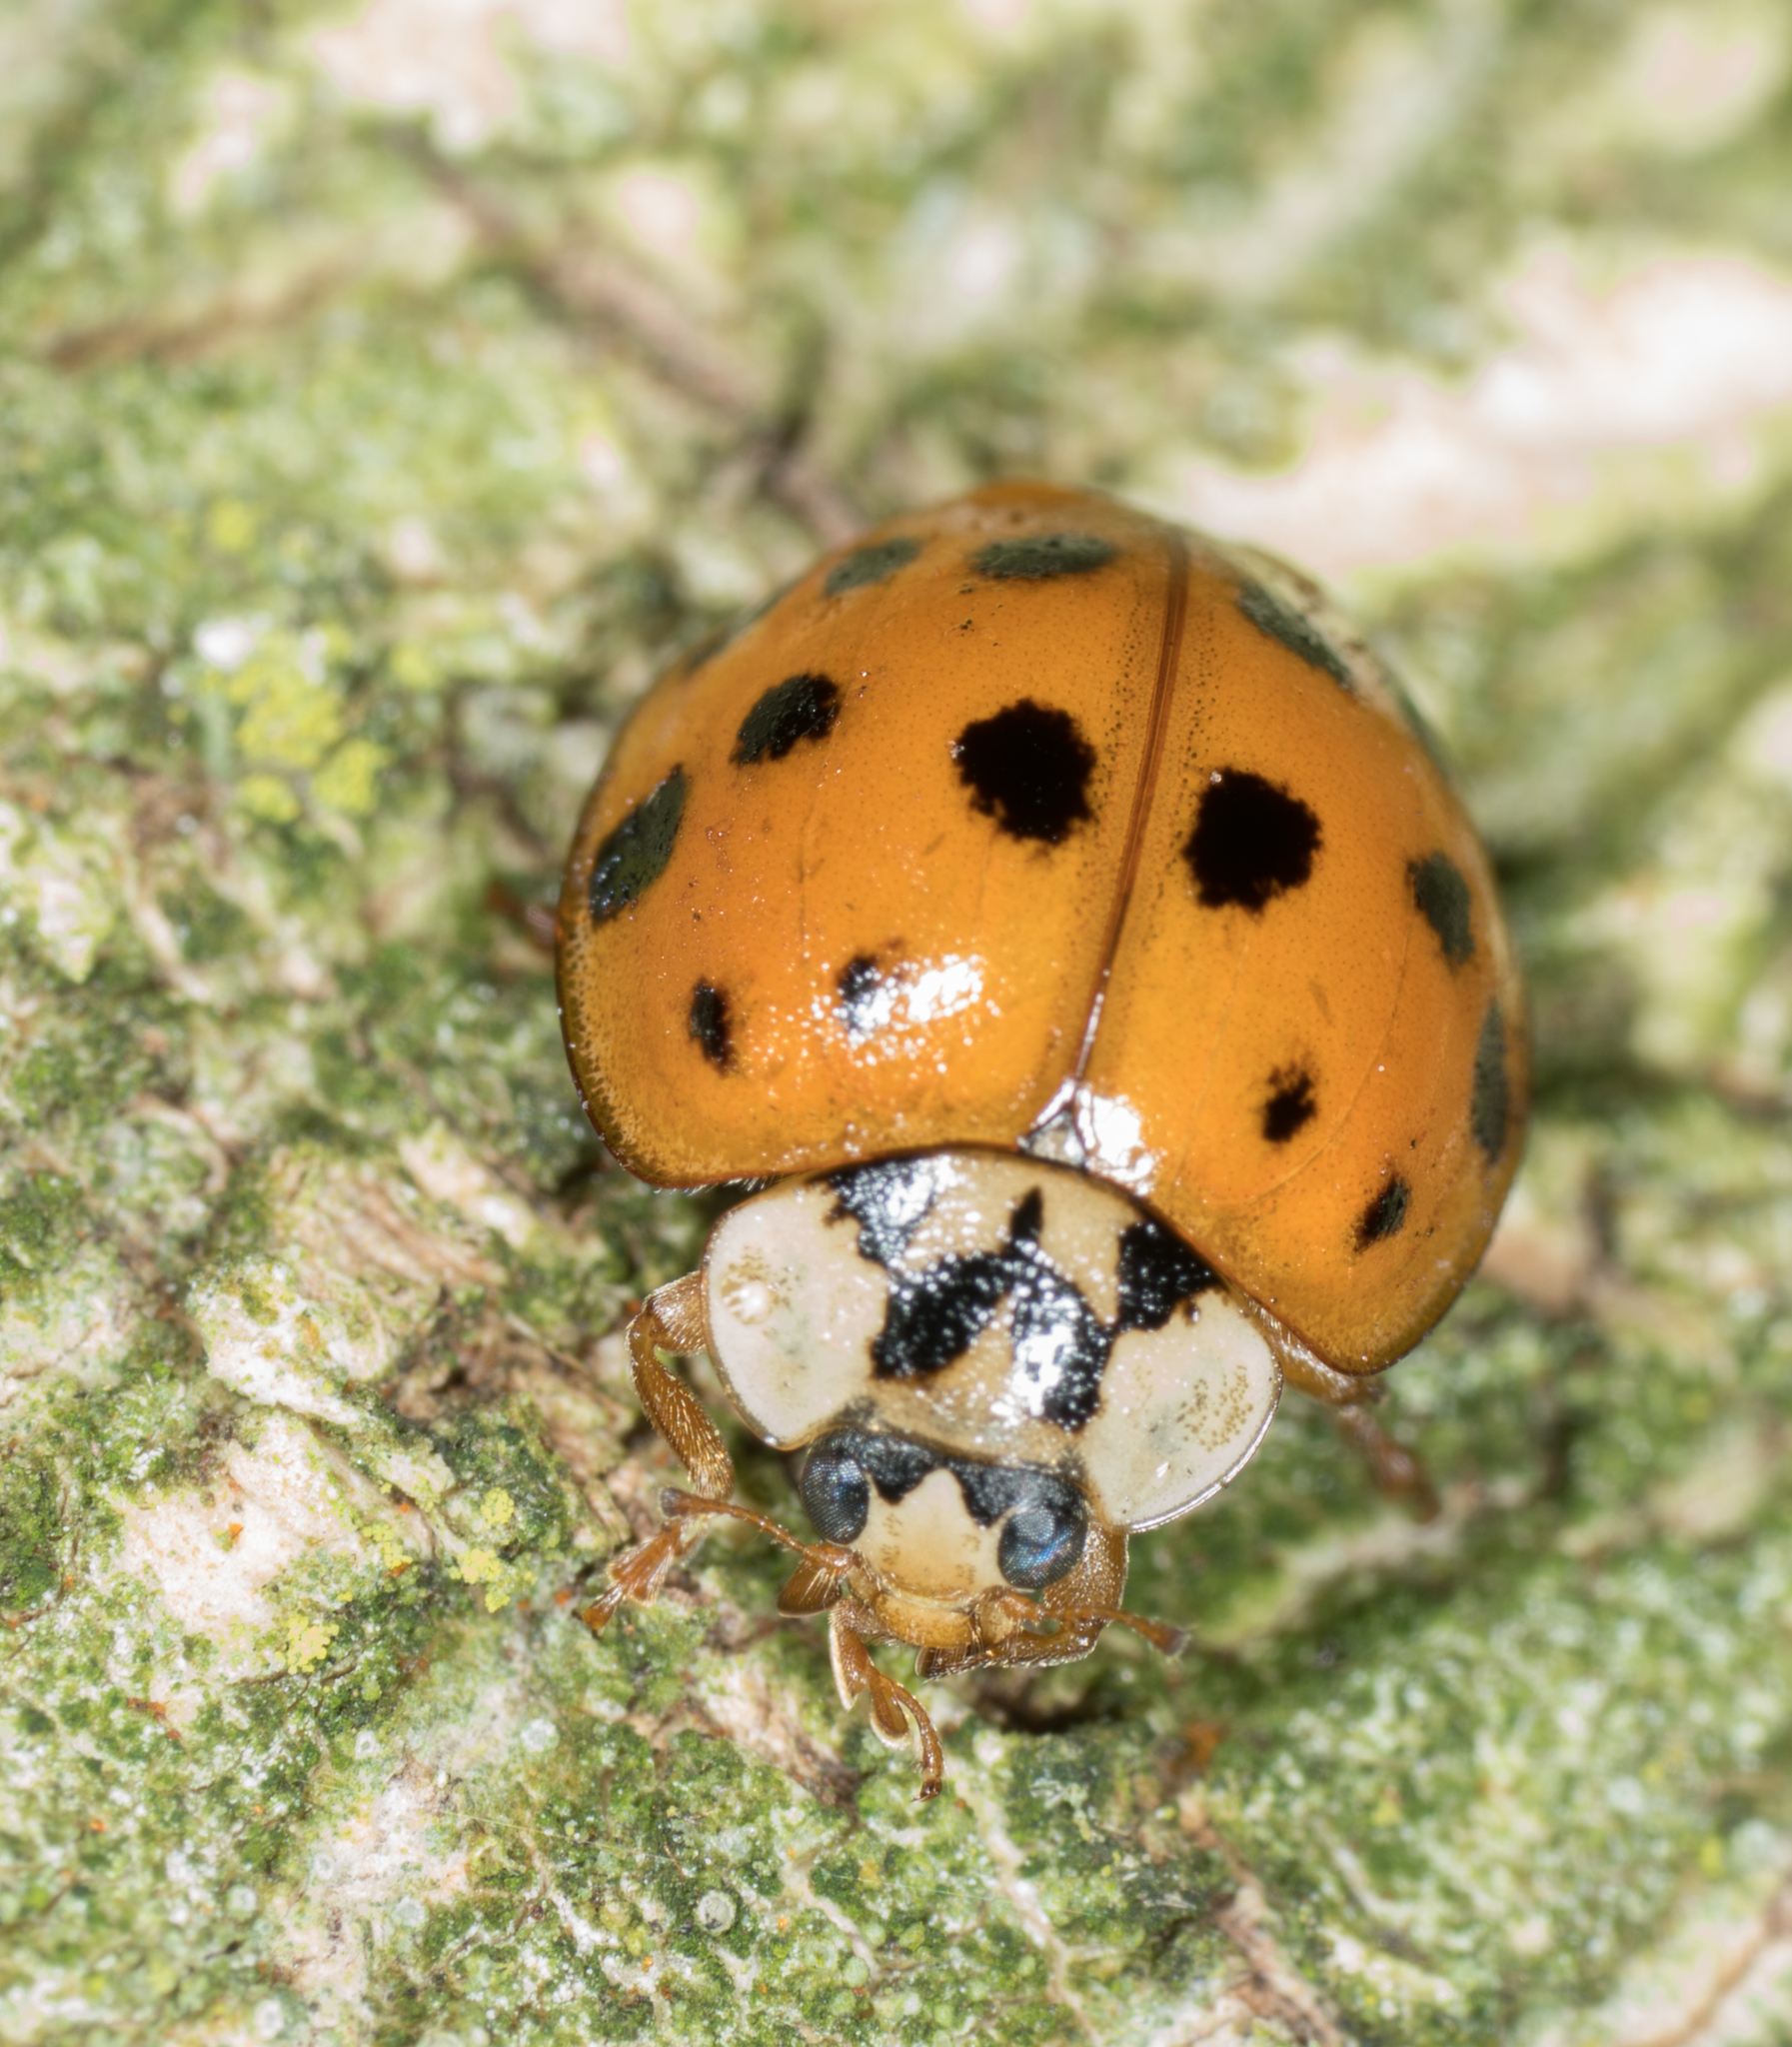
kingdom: Animalia
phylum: Arthropoda
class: Insecta
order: Coleoptera
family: Coccinellidae
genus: Harmonia
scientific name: Harmonia axyridis
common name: Harlequin ladybird
